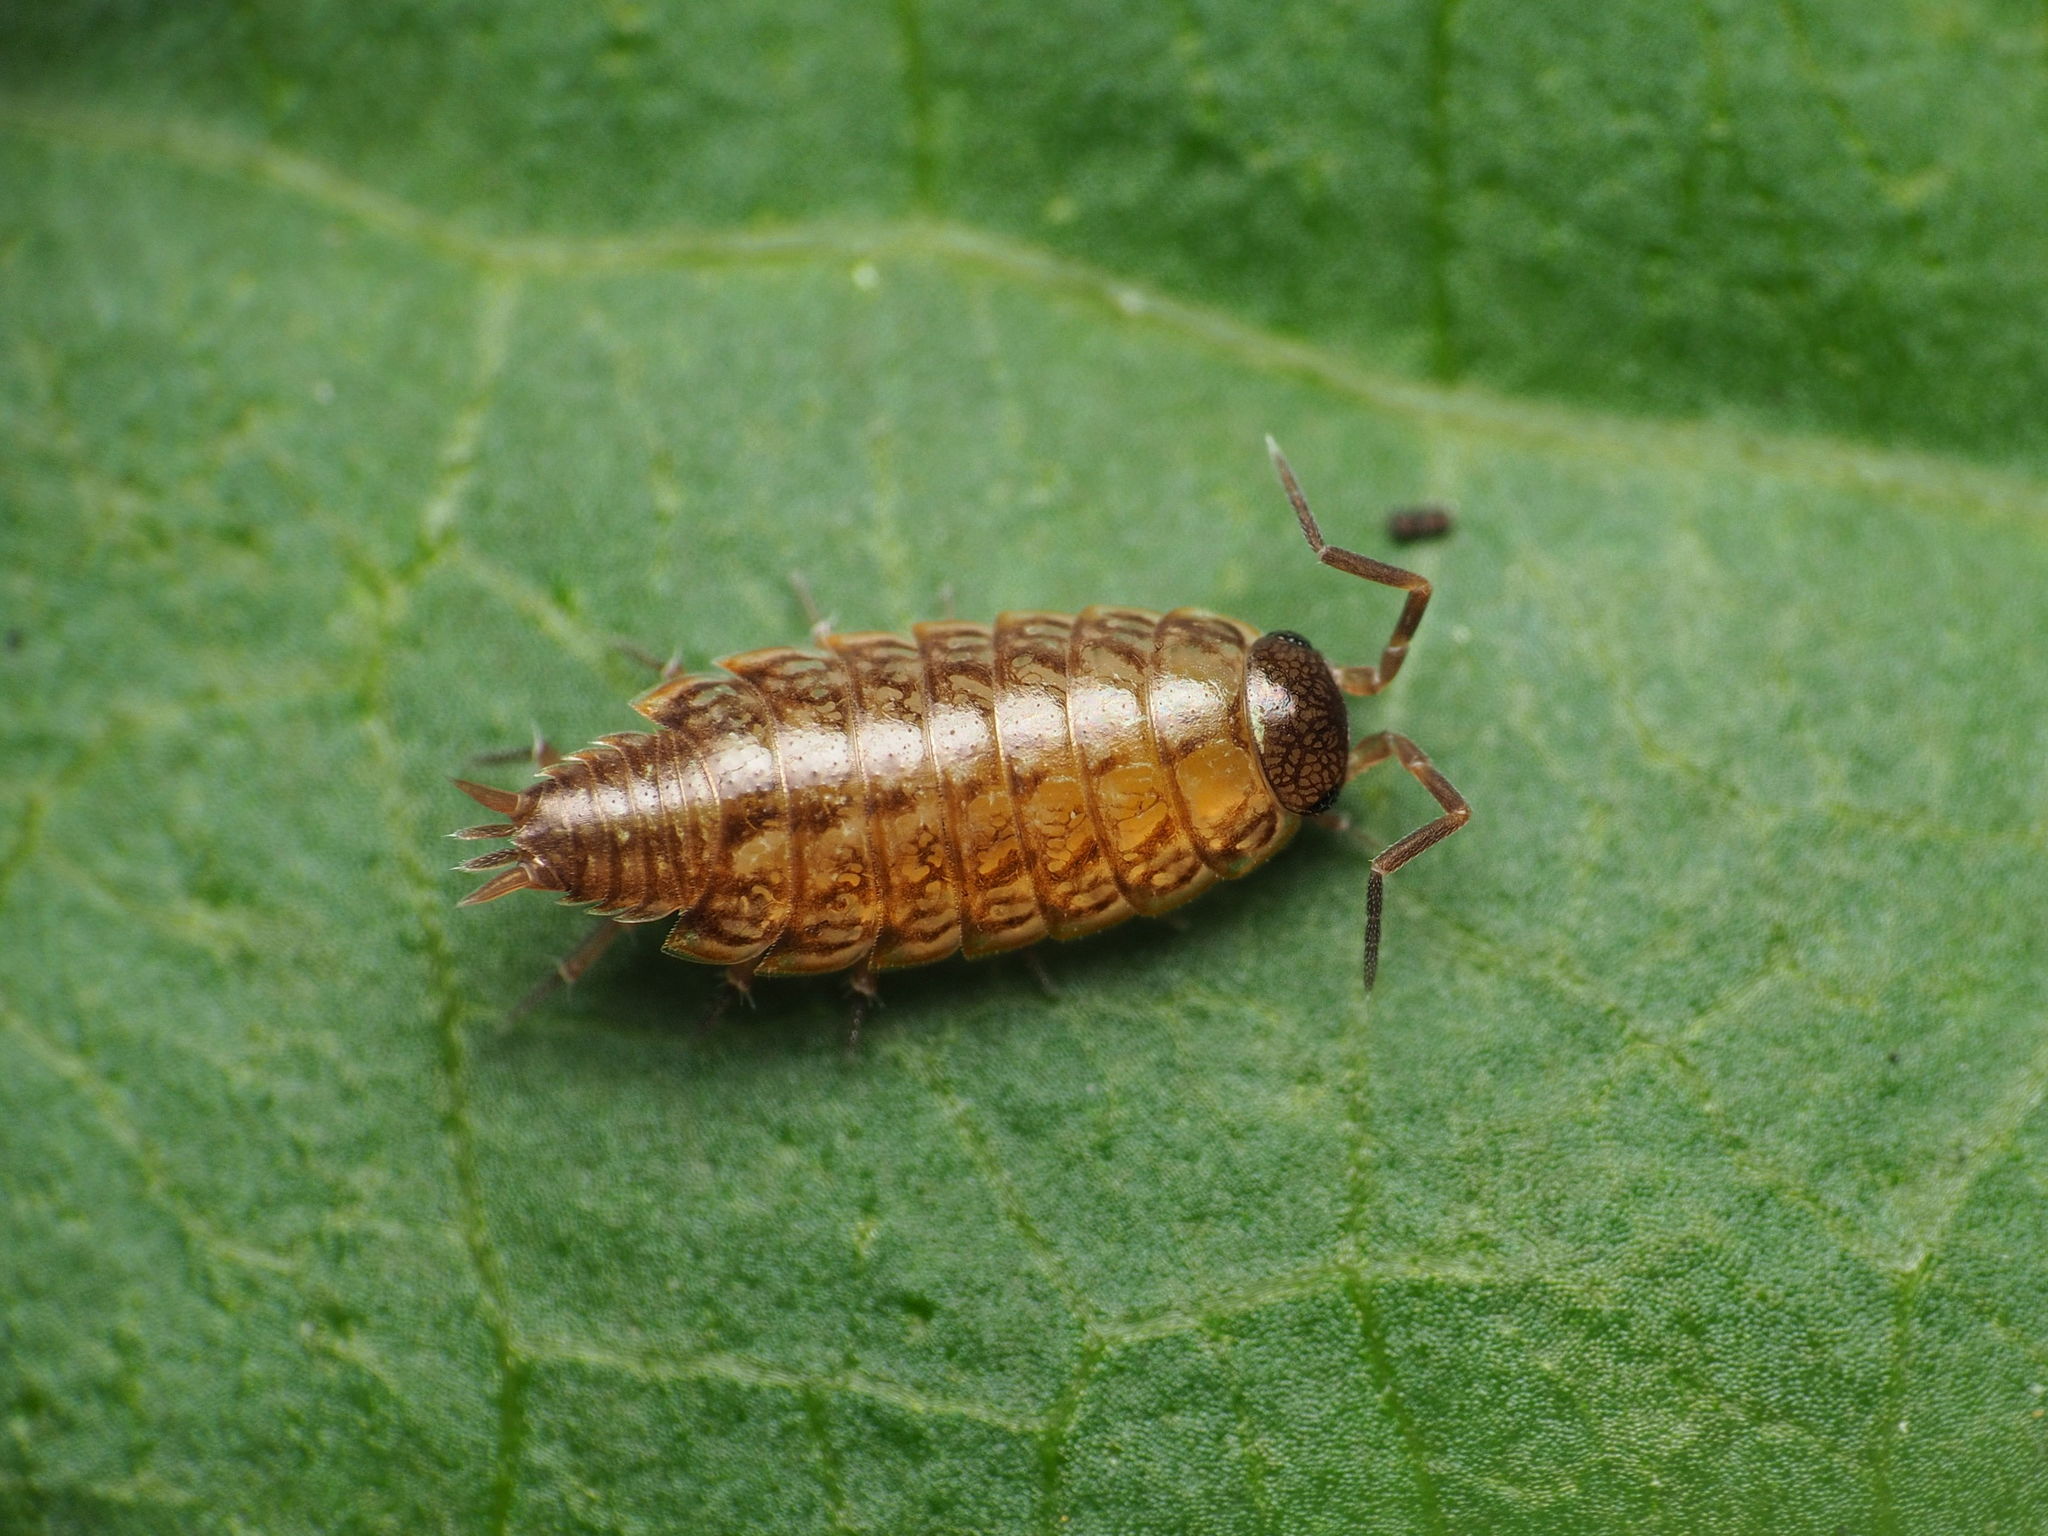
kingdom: Animalia
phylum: Arthropoda
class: Malacostraca
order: Isopoda
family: Philosciidae
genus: Philoscia
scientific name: Philoscia muscorum
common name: Common striped woodlouse
